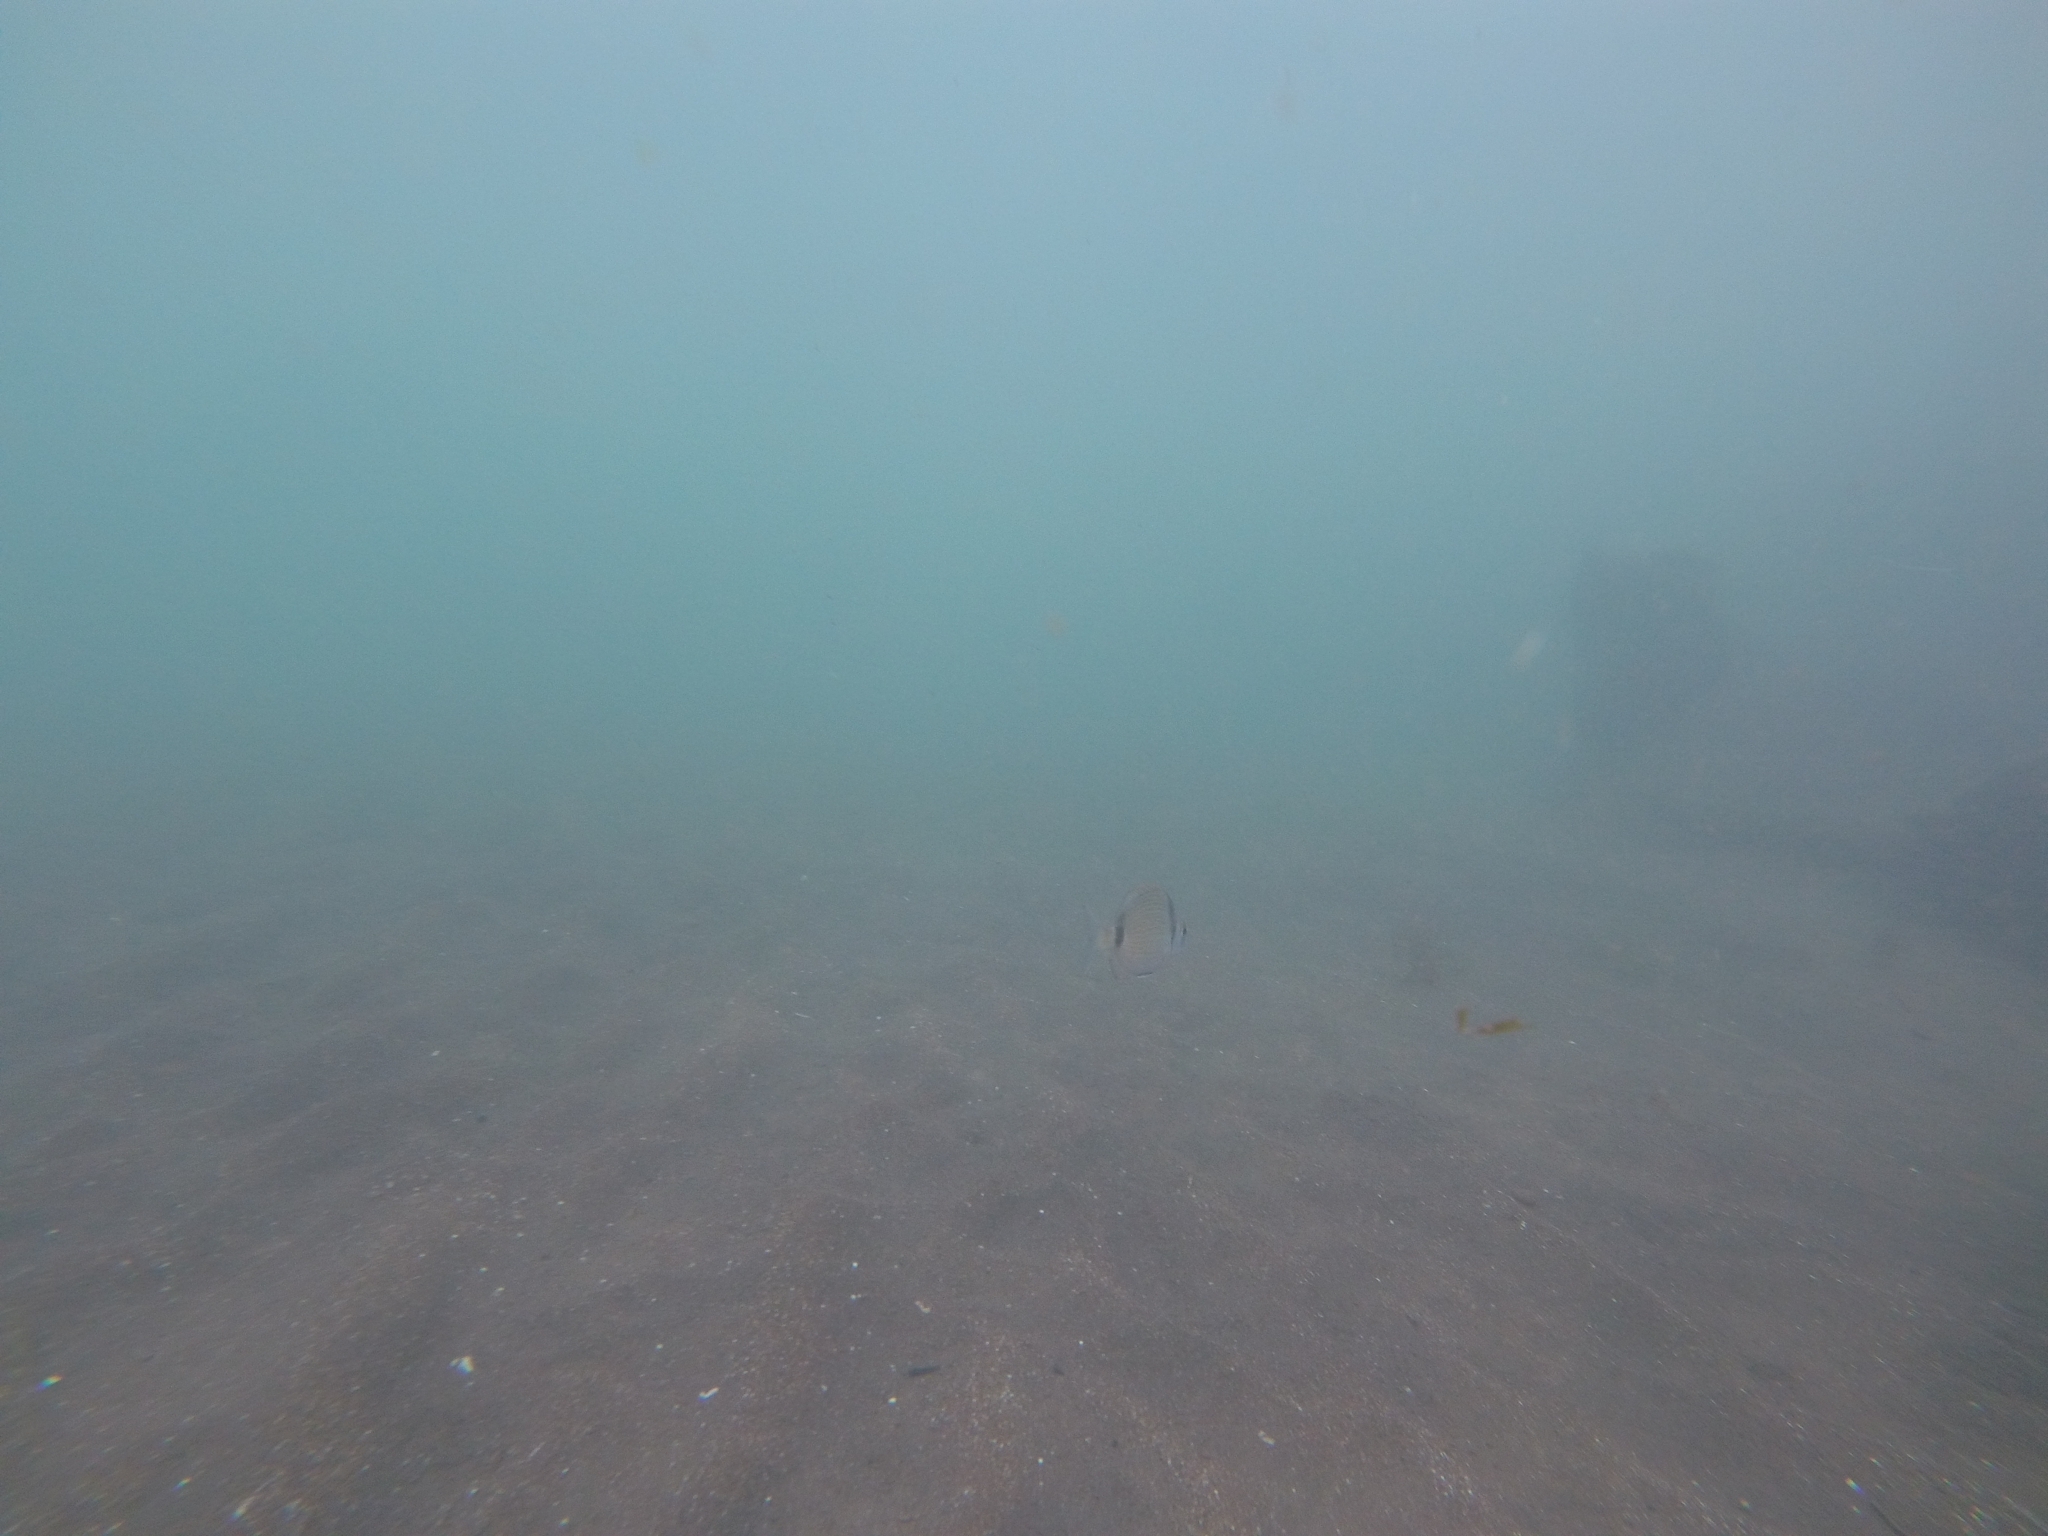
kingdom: Animalia
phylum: Chordata
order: Perciformes
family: Sparidae
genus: Diplodus
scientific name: Diplodus vulgaris
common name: Common two-banded seabream
